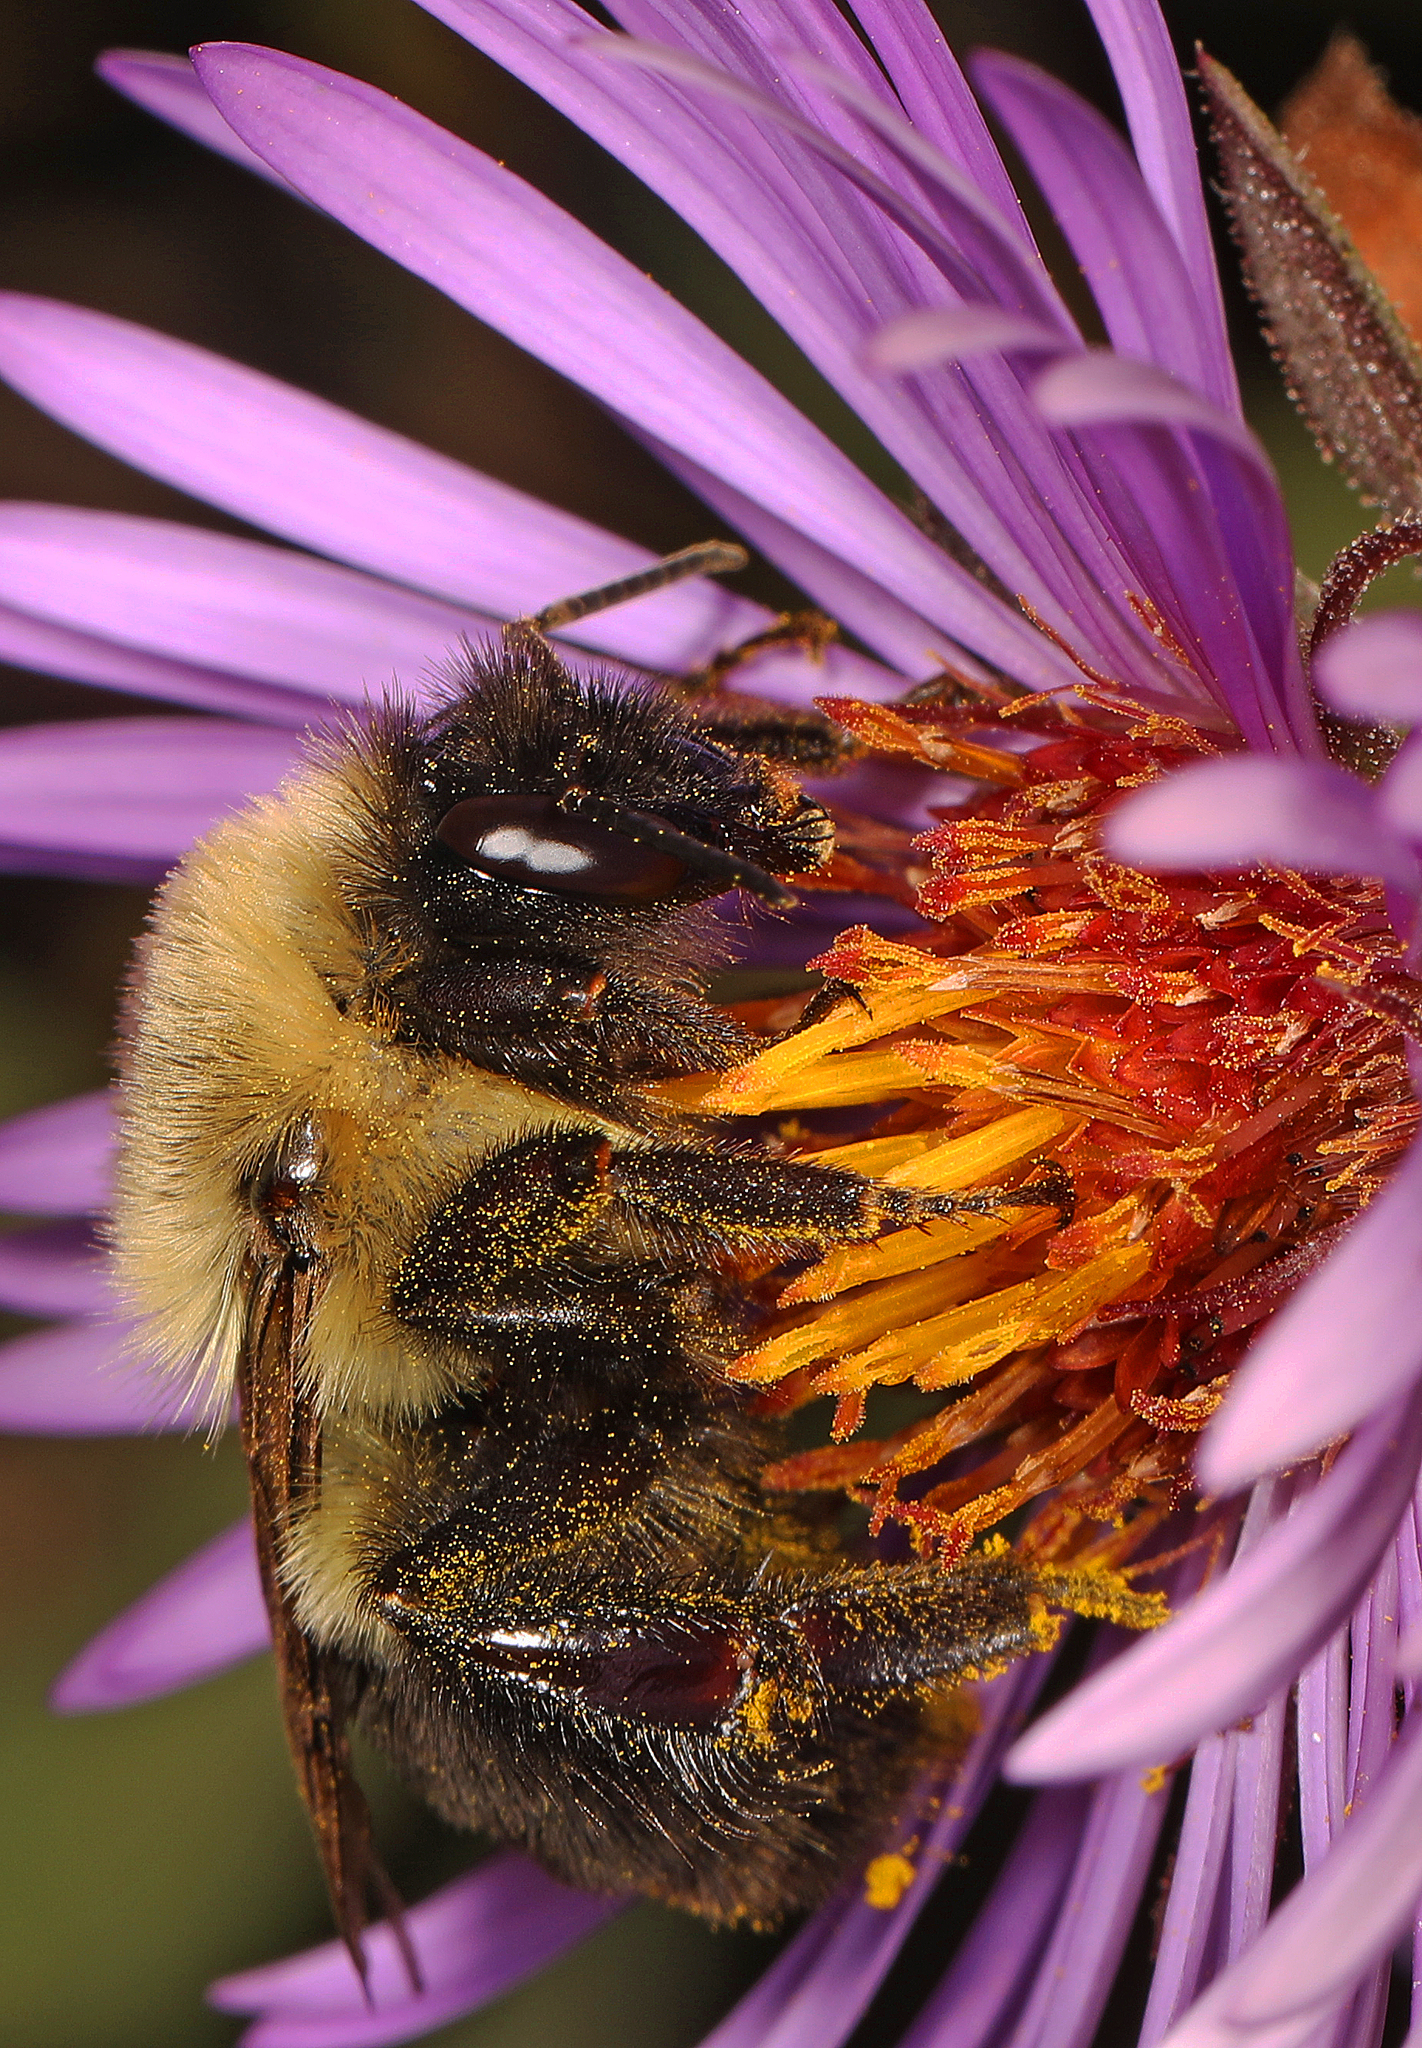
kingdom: Animalia
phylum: Arthropoda
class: Insecta
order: Hymenoptera
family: Apidae
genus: Bombus
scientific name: Bombus impatiens
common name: Common eastern bumble bee
